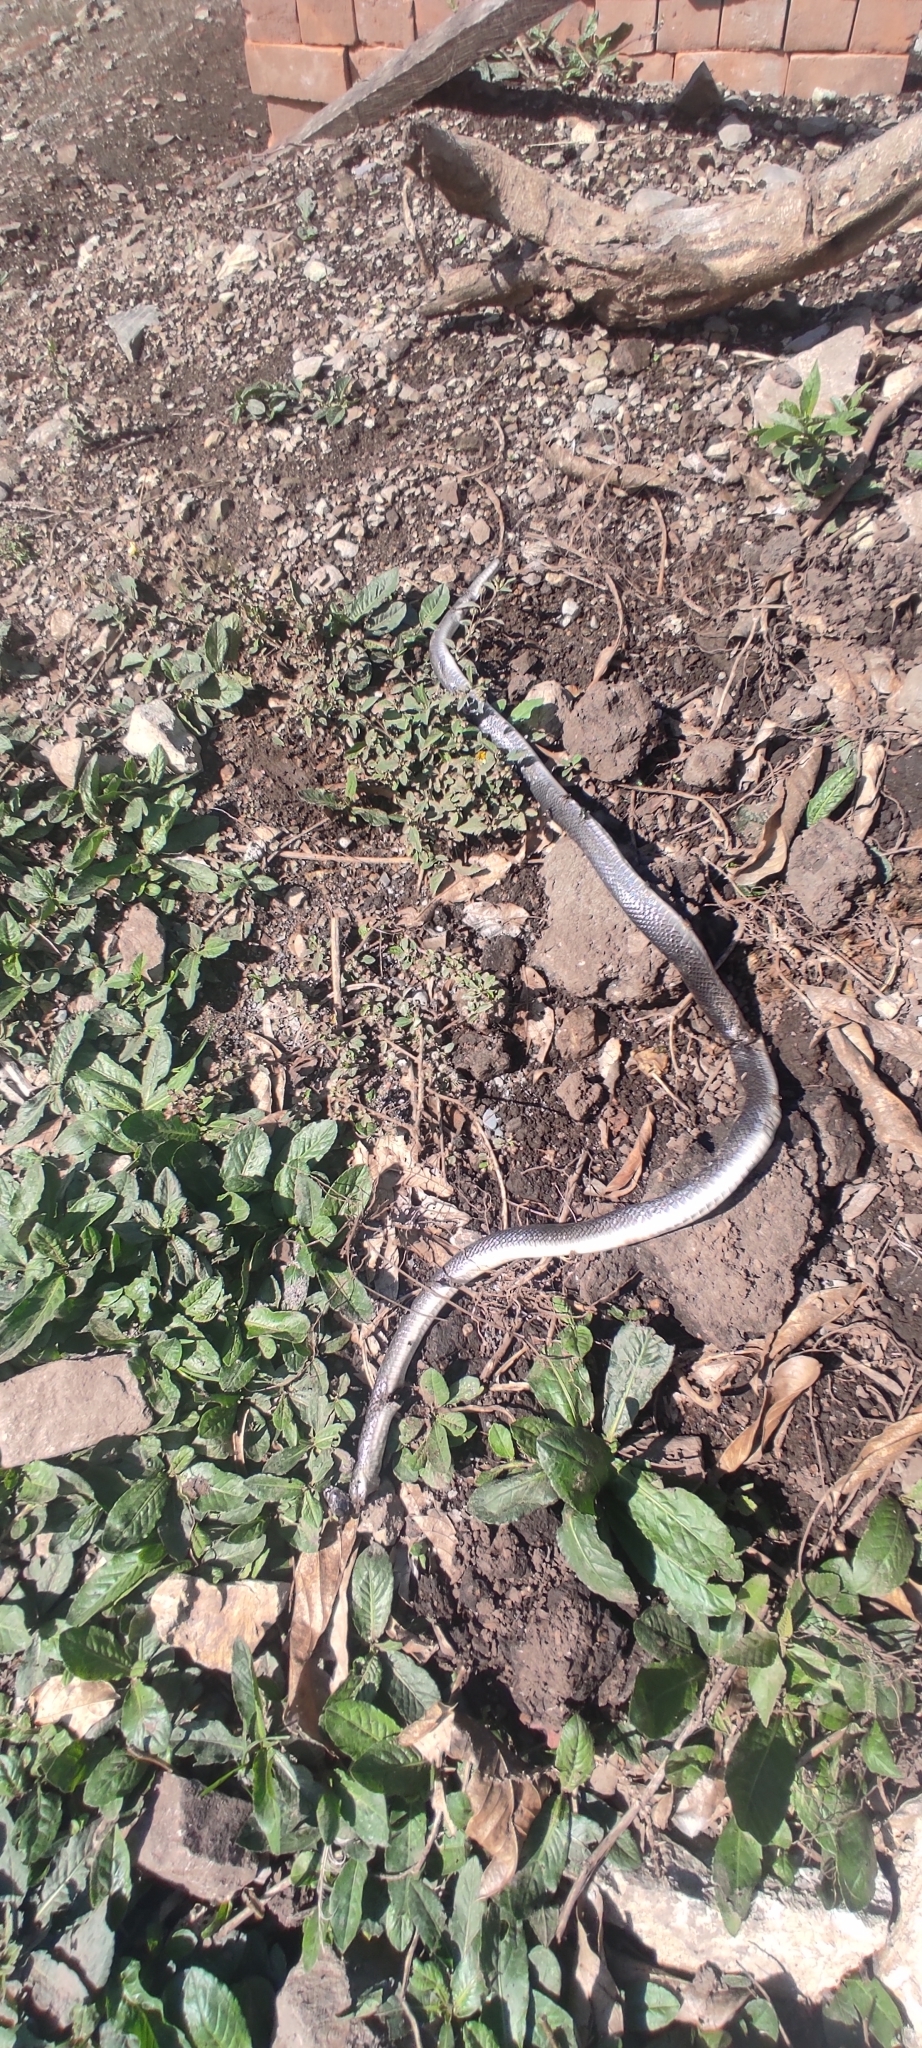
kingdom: Animalia
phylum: Chordata
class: Squamata
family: Colubridae
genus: Clelia
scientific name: Clelia clelia
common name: Mussurana
